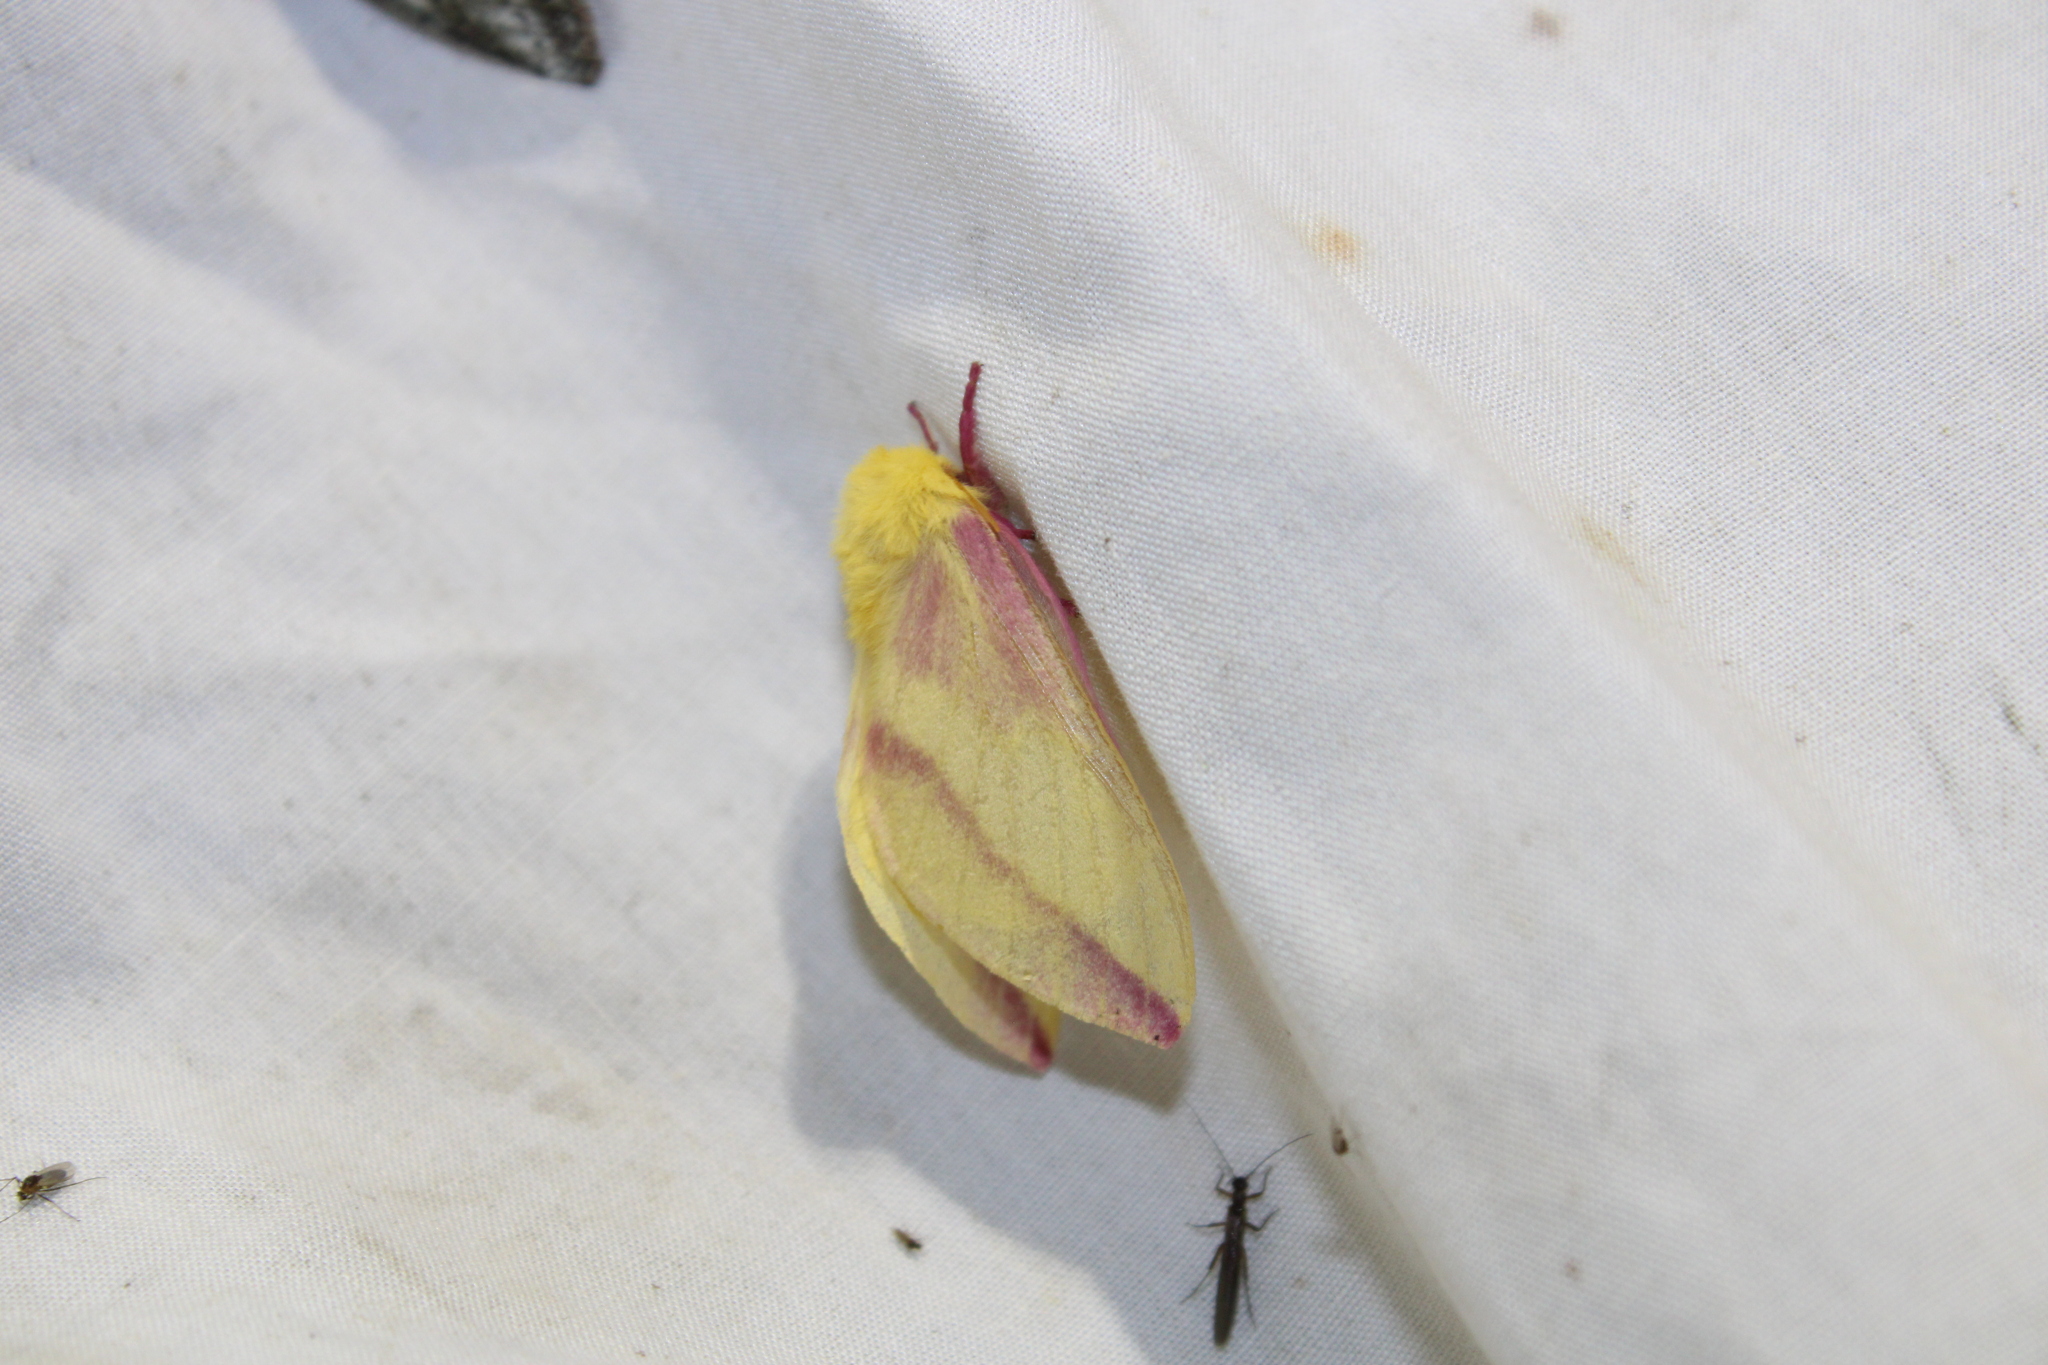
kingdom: Animalia
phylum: Arthropoda
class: Insecta
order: Lepidoptera
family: Saturniidae
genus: Dryocampa
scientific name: Dryocampa rubicunda
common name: Rosy maple moth
